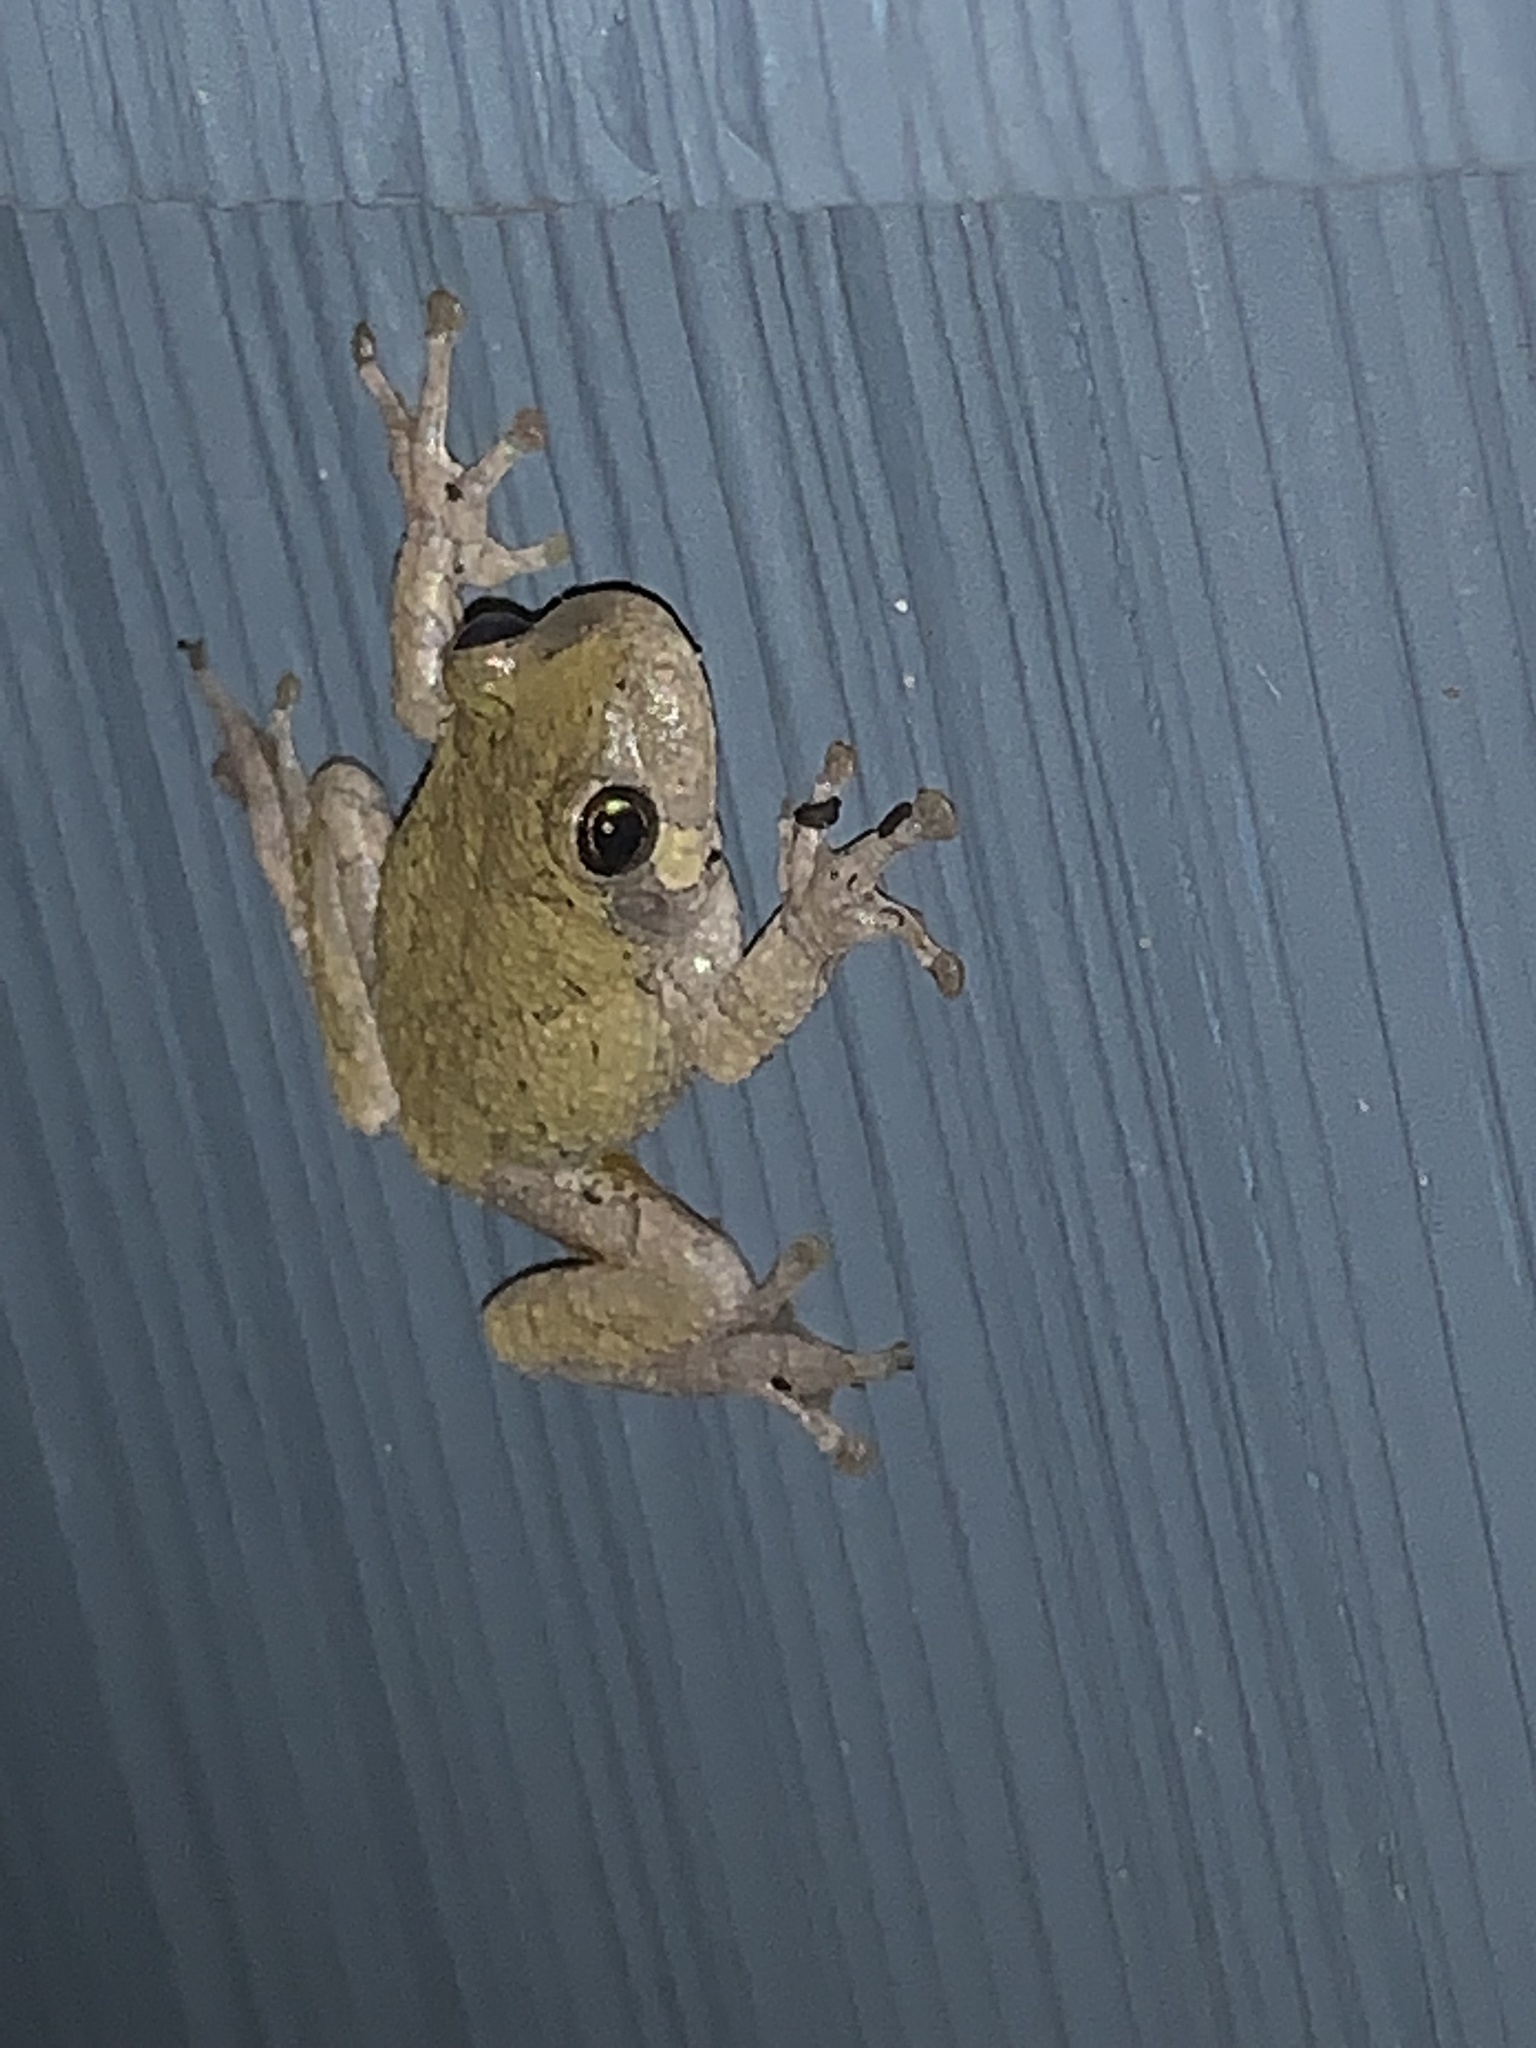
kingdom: Animalia
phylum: Chordata
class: Amphibia
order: Anura
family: Hylidae
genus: Hyla
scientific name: Hyla
